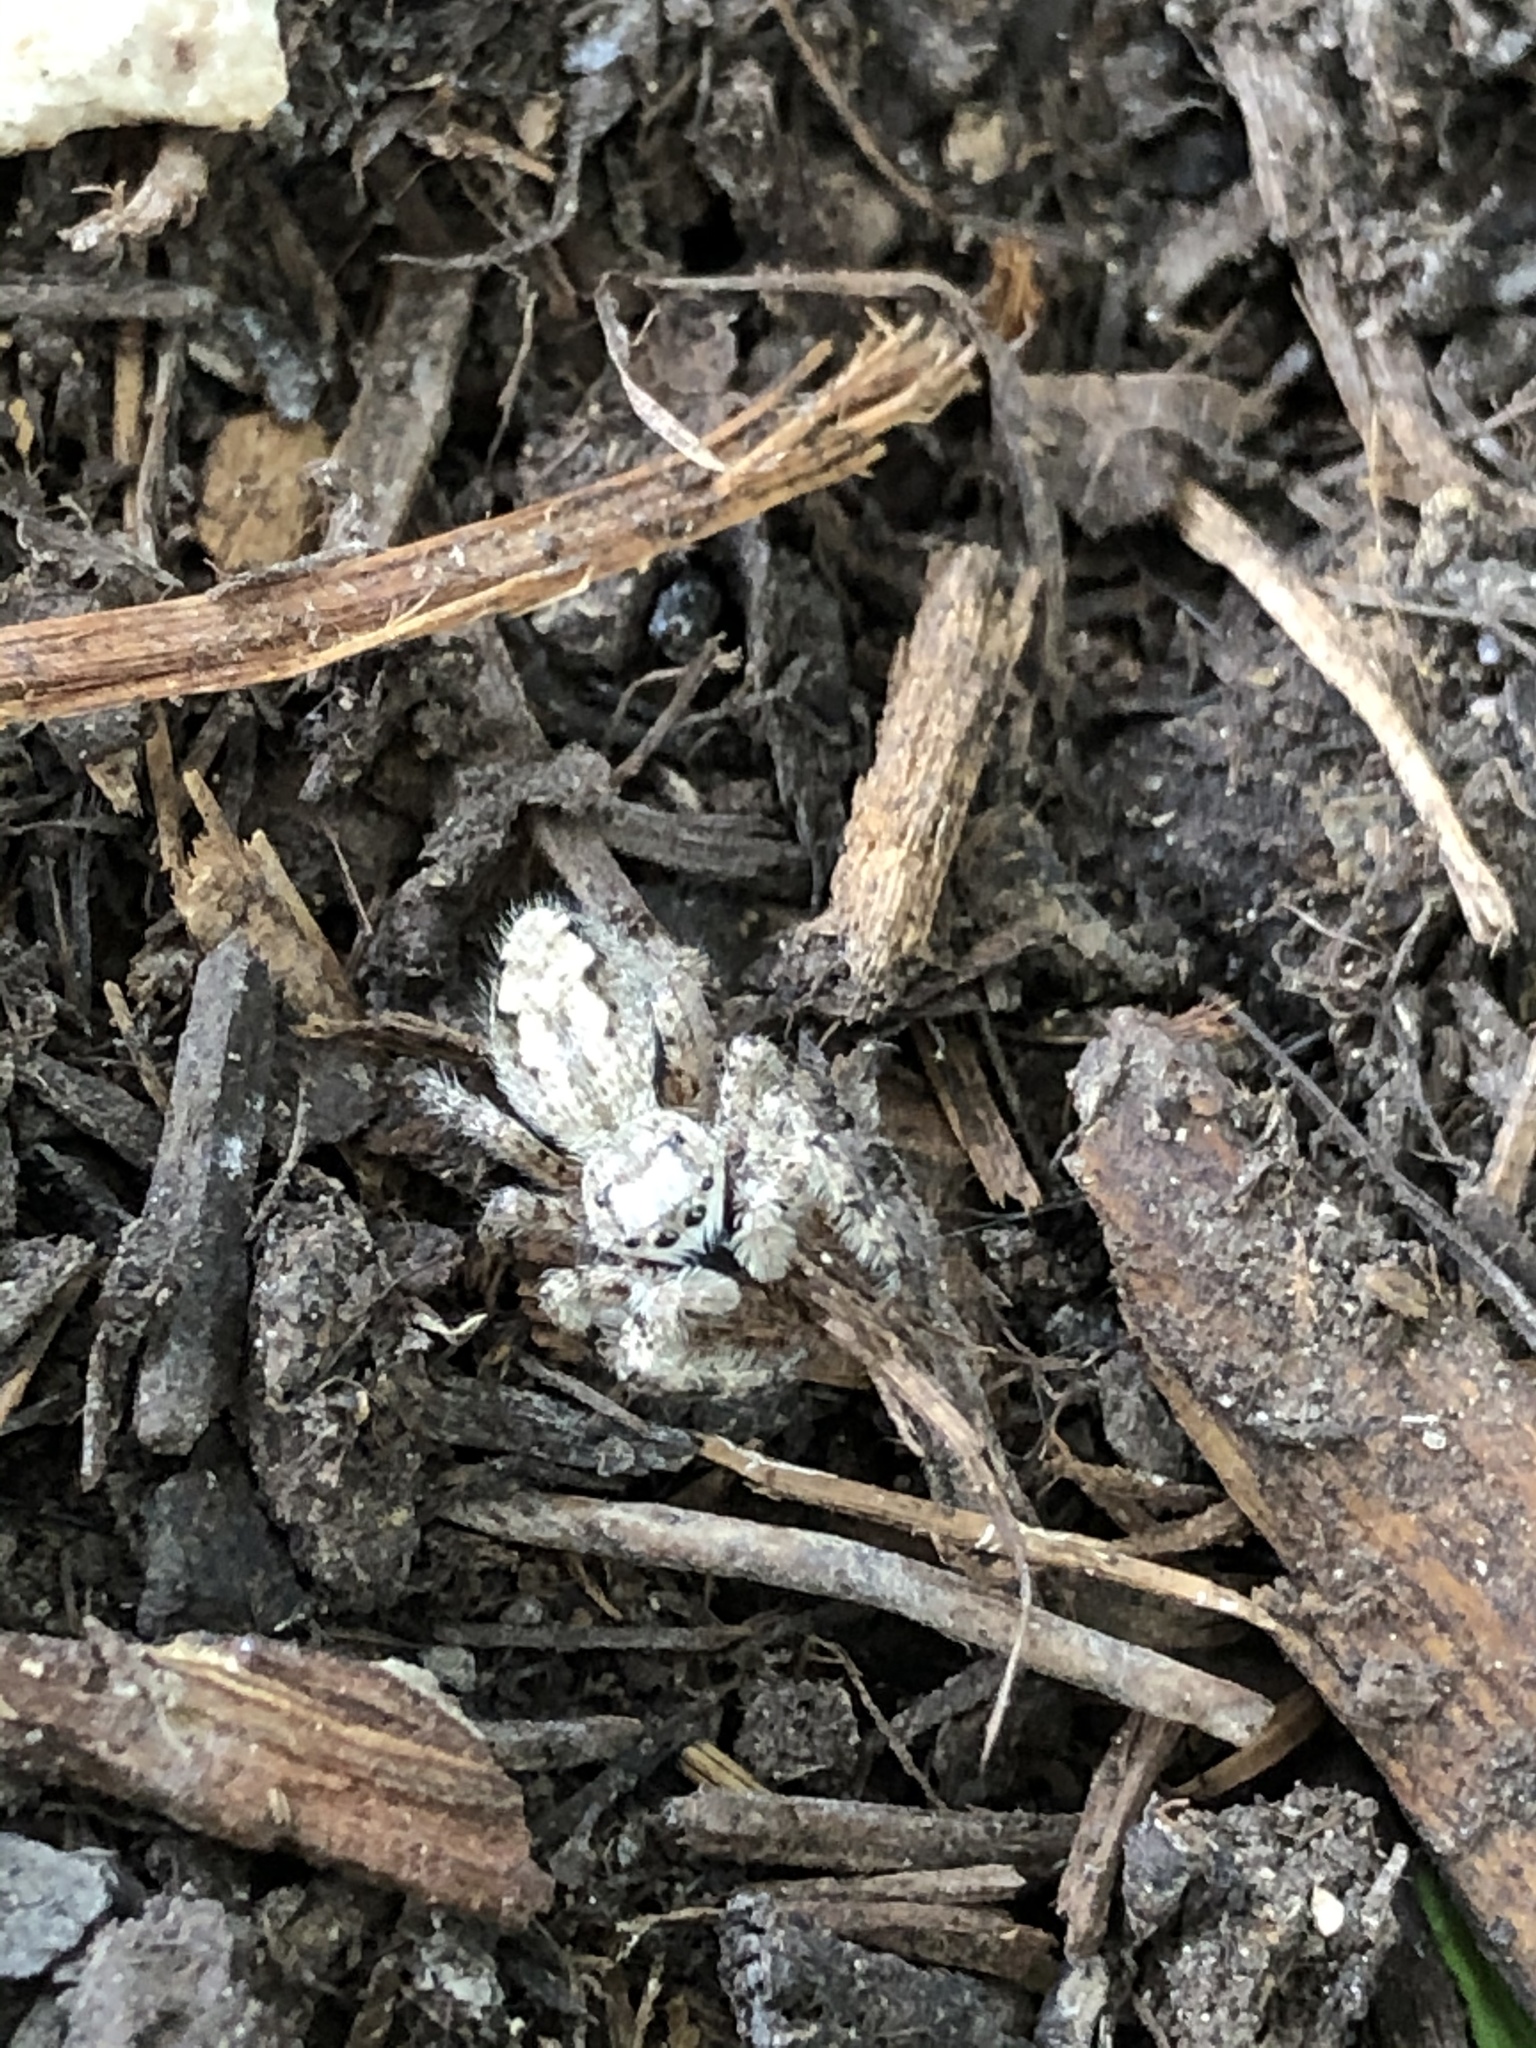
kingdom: Animalia
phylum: Arthropoda
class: Arachnida
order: Araneae
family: Salticidae
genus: Platycryptus
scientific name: Platycryptus undatus
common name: Tan jumping spider
